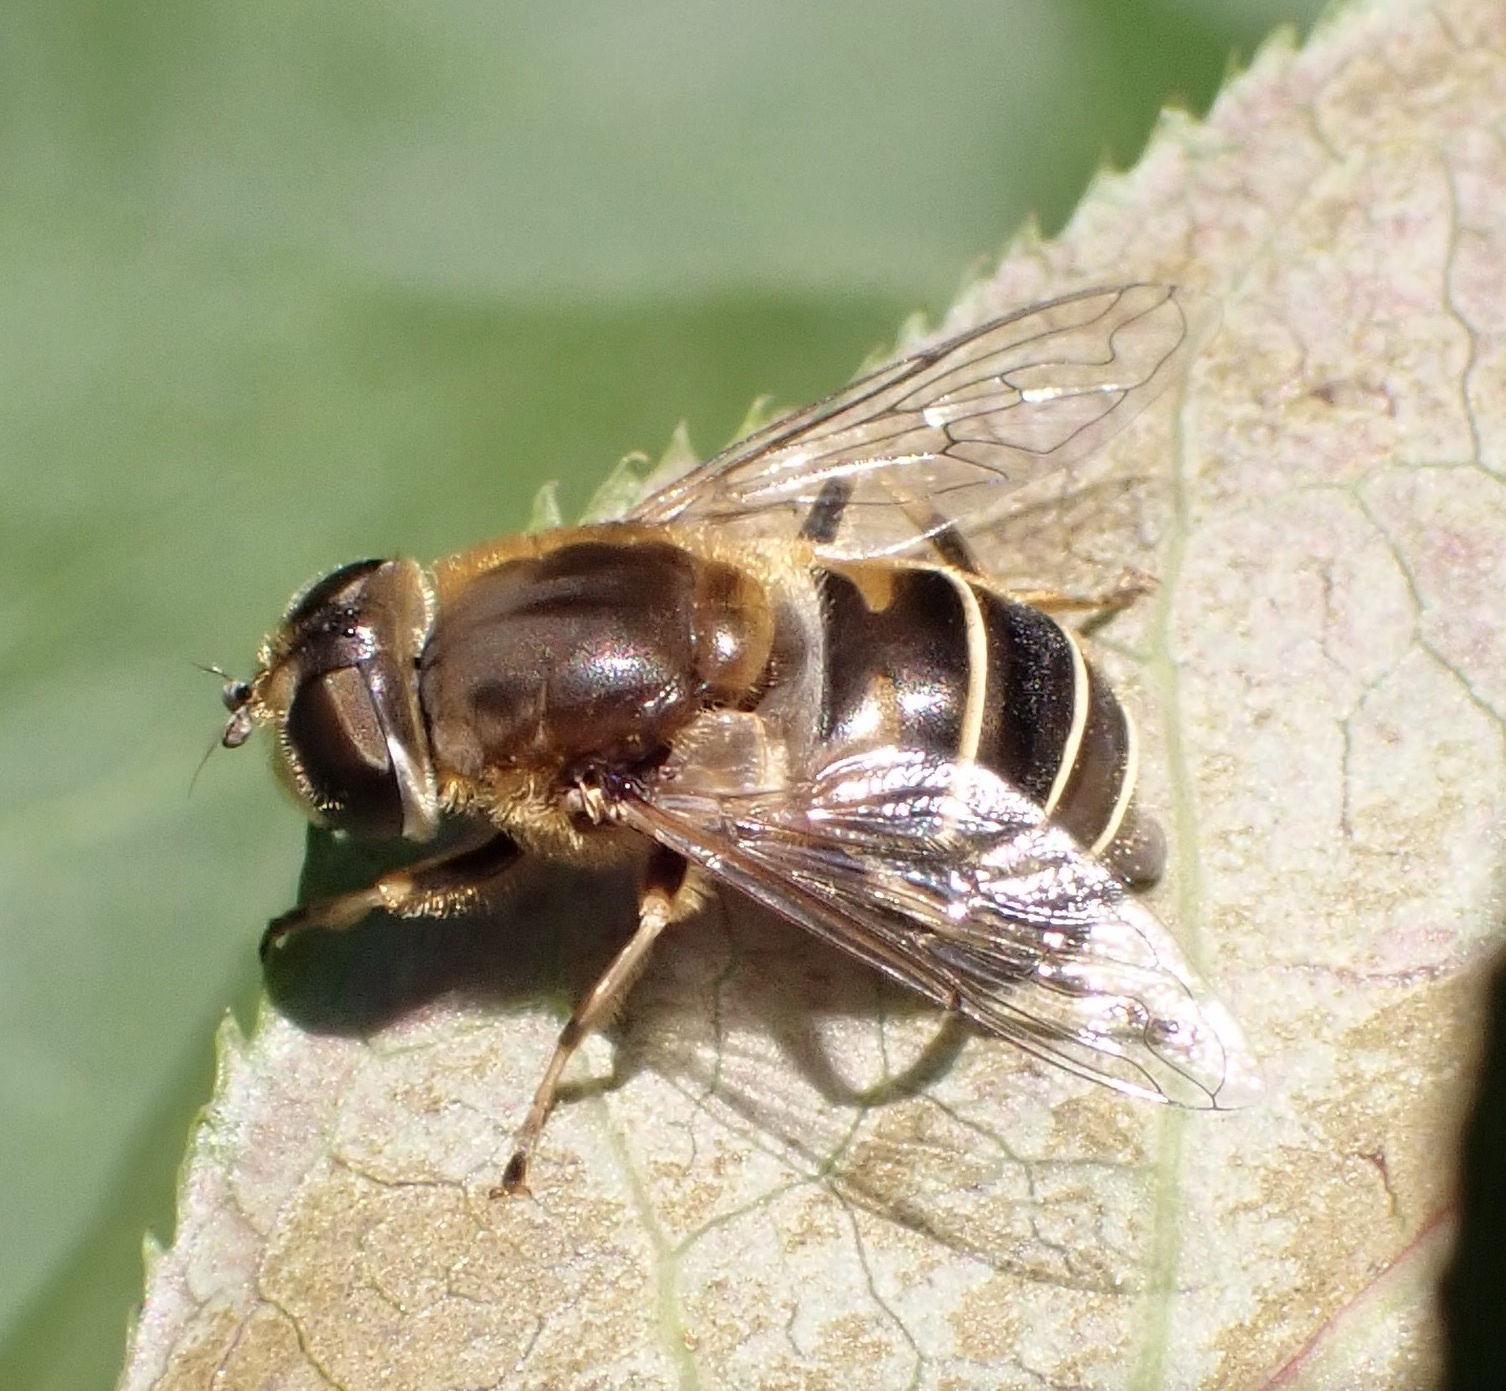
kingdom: Animalia
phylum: Arthropoda
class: Insecta
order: Diptera
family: Syrphidae
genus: Eristalis
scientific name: Eristalis nemorum
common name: Orange-spined drone fly
